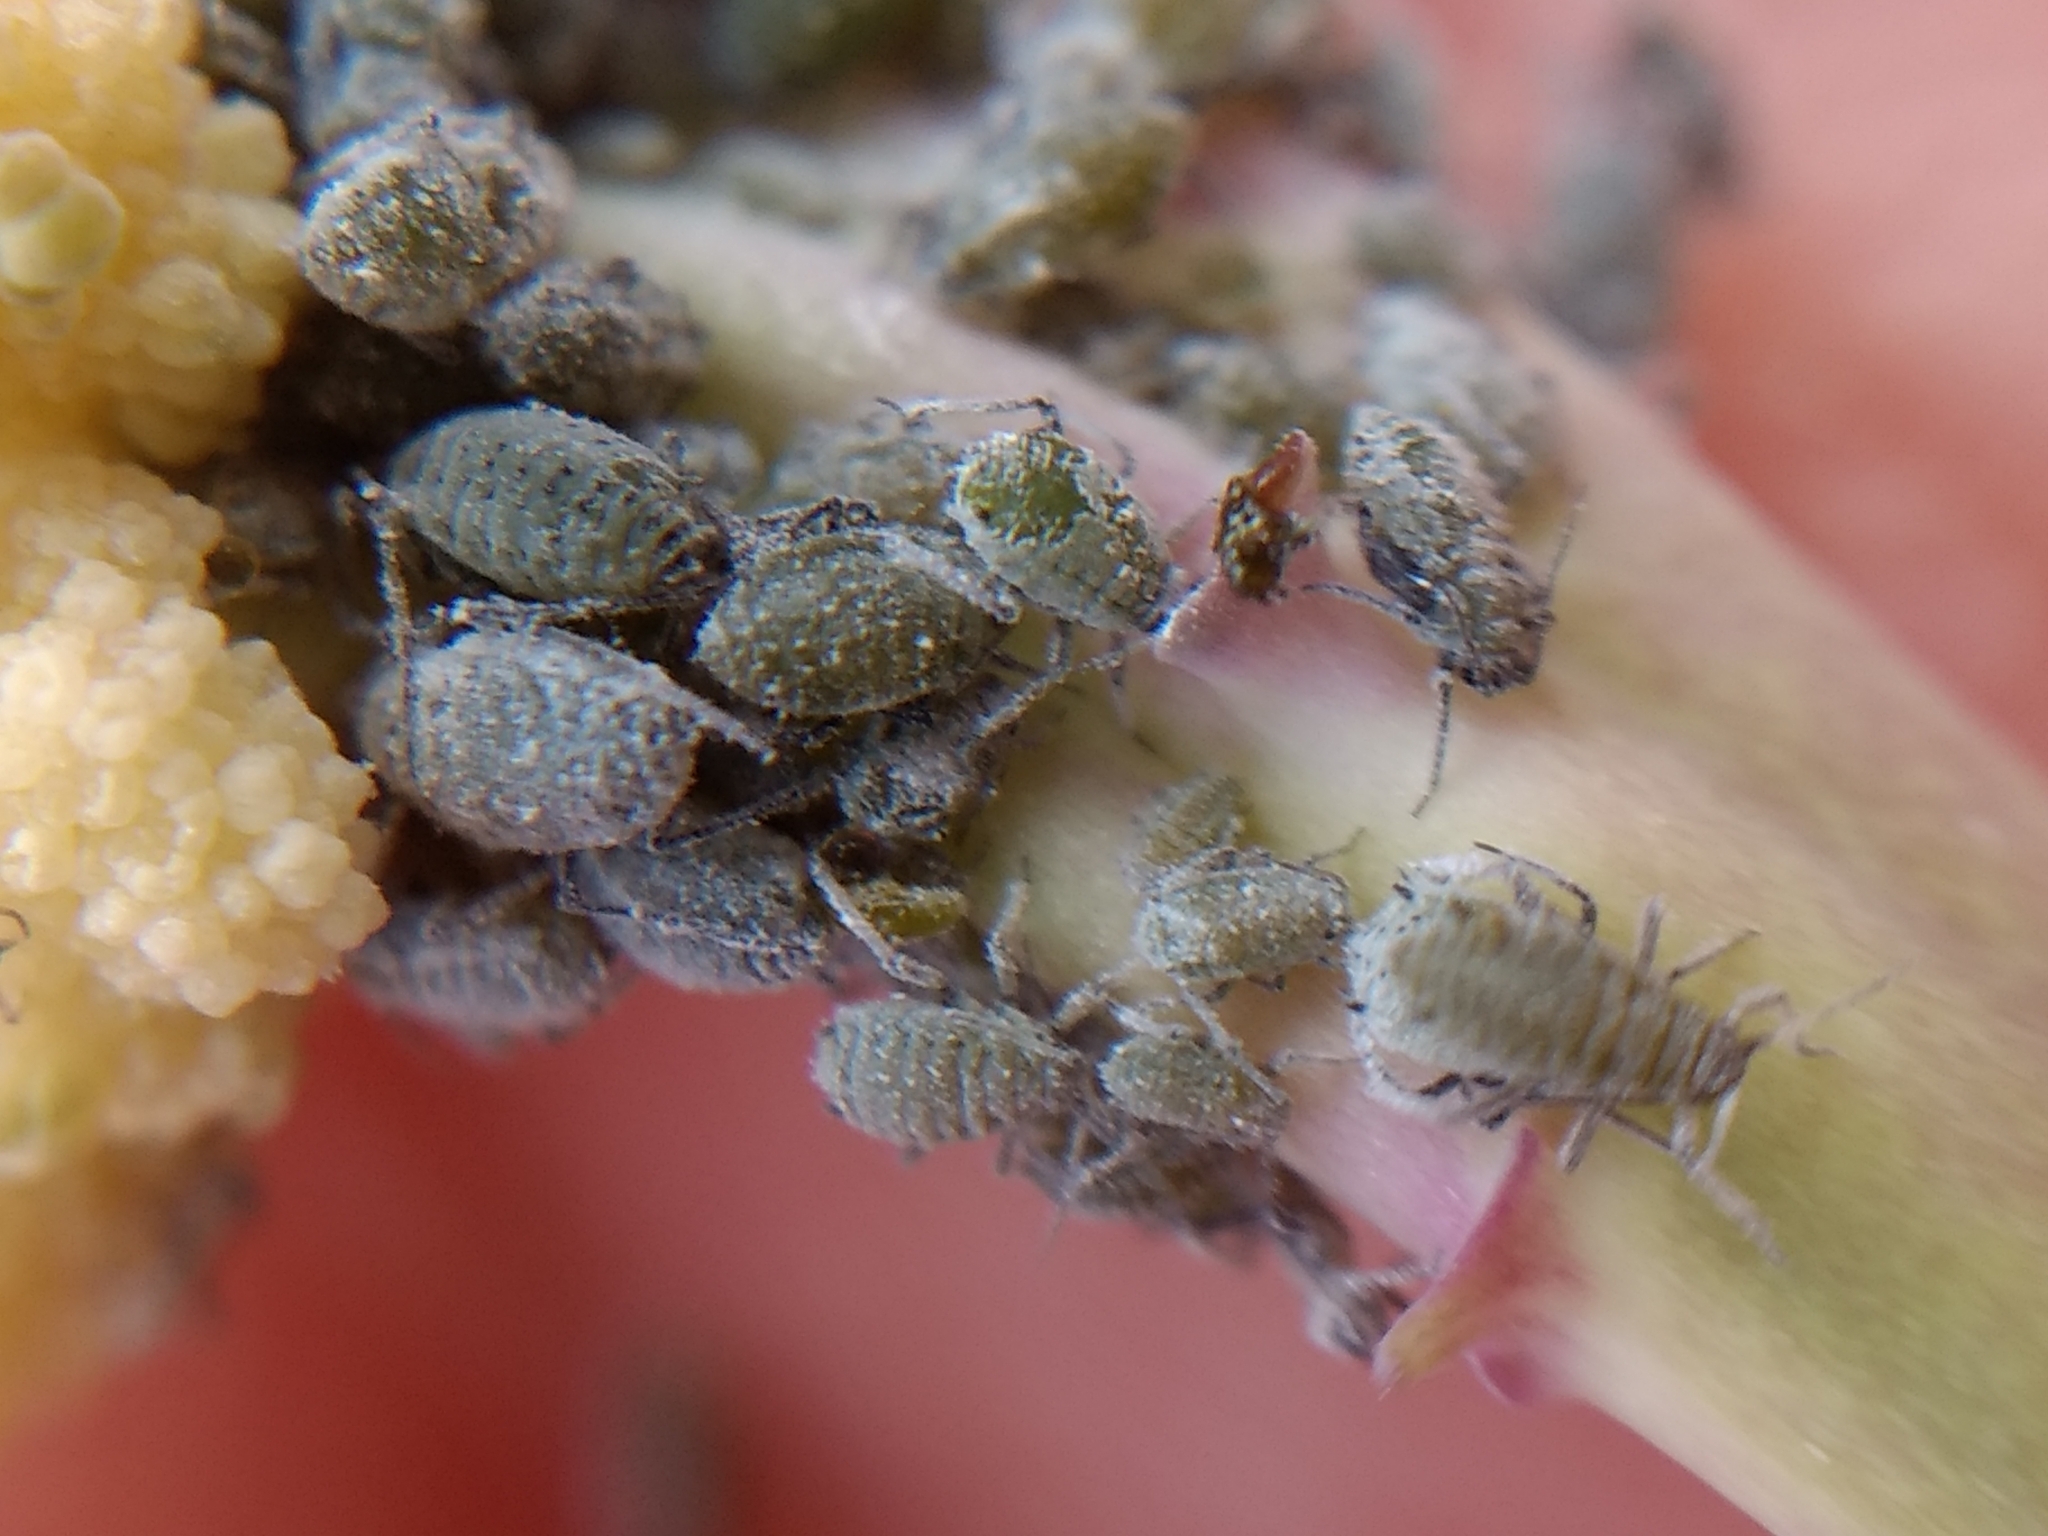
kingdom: Animalia
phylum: Arthropoda
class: Insecta
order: Hemiptera
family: Aphididae
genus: Brevicoryne
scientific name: Brevicoryne brassicae
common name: Cabbage aphid
